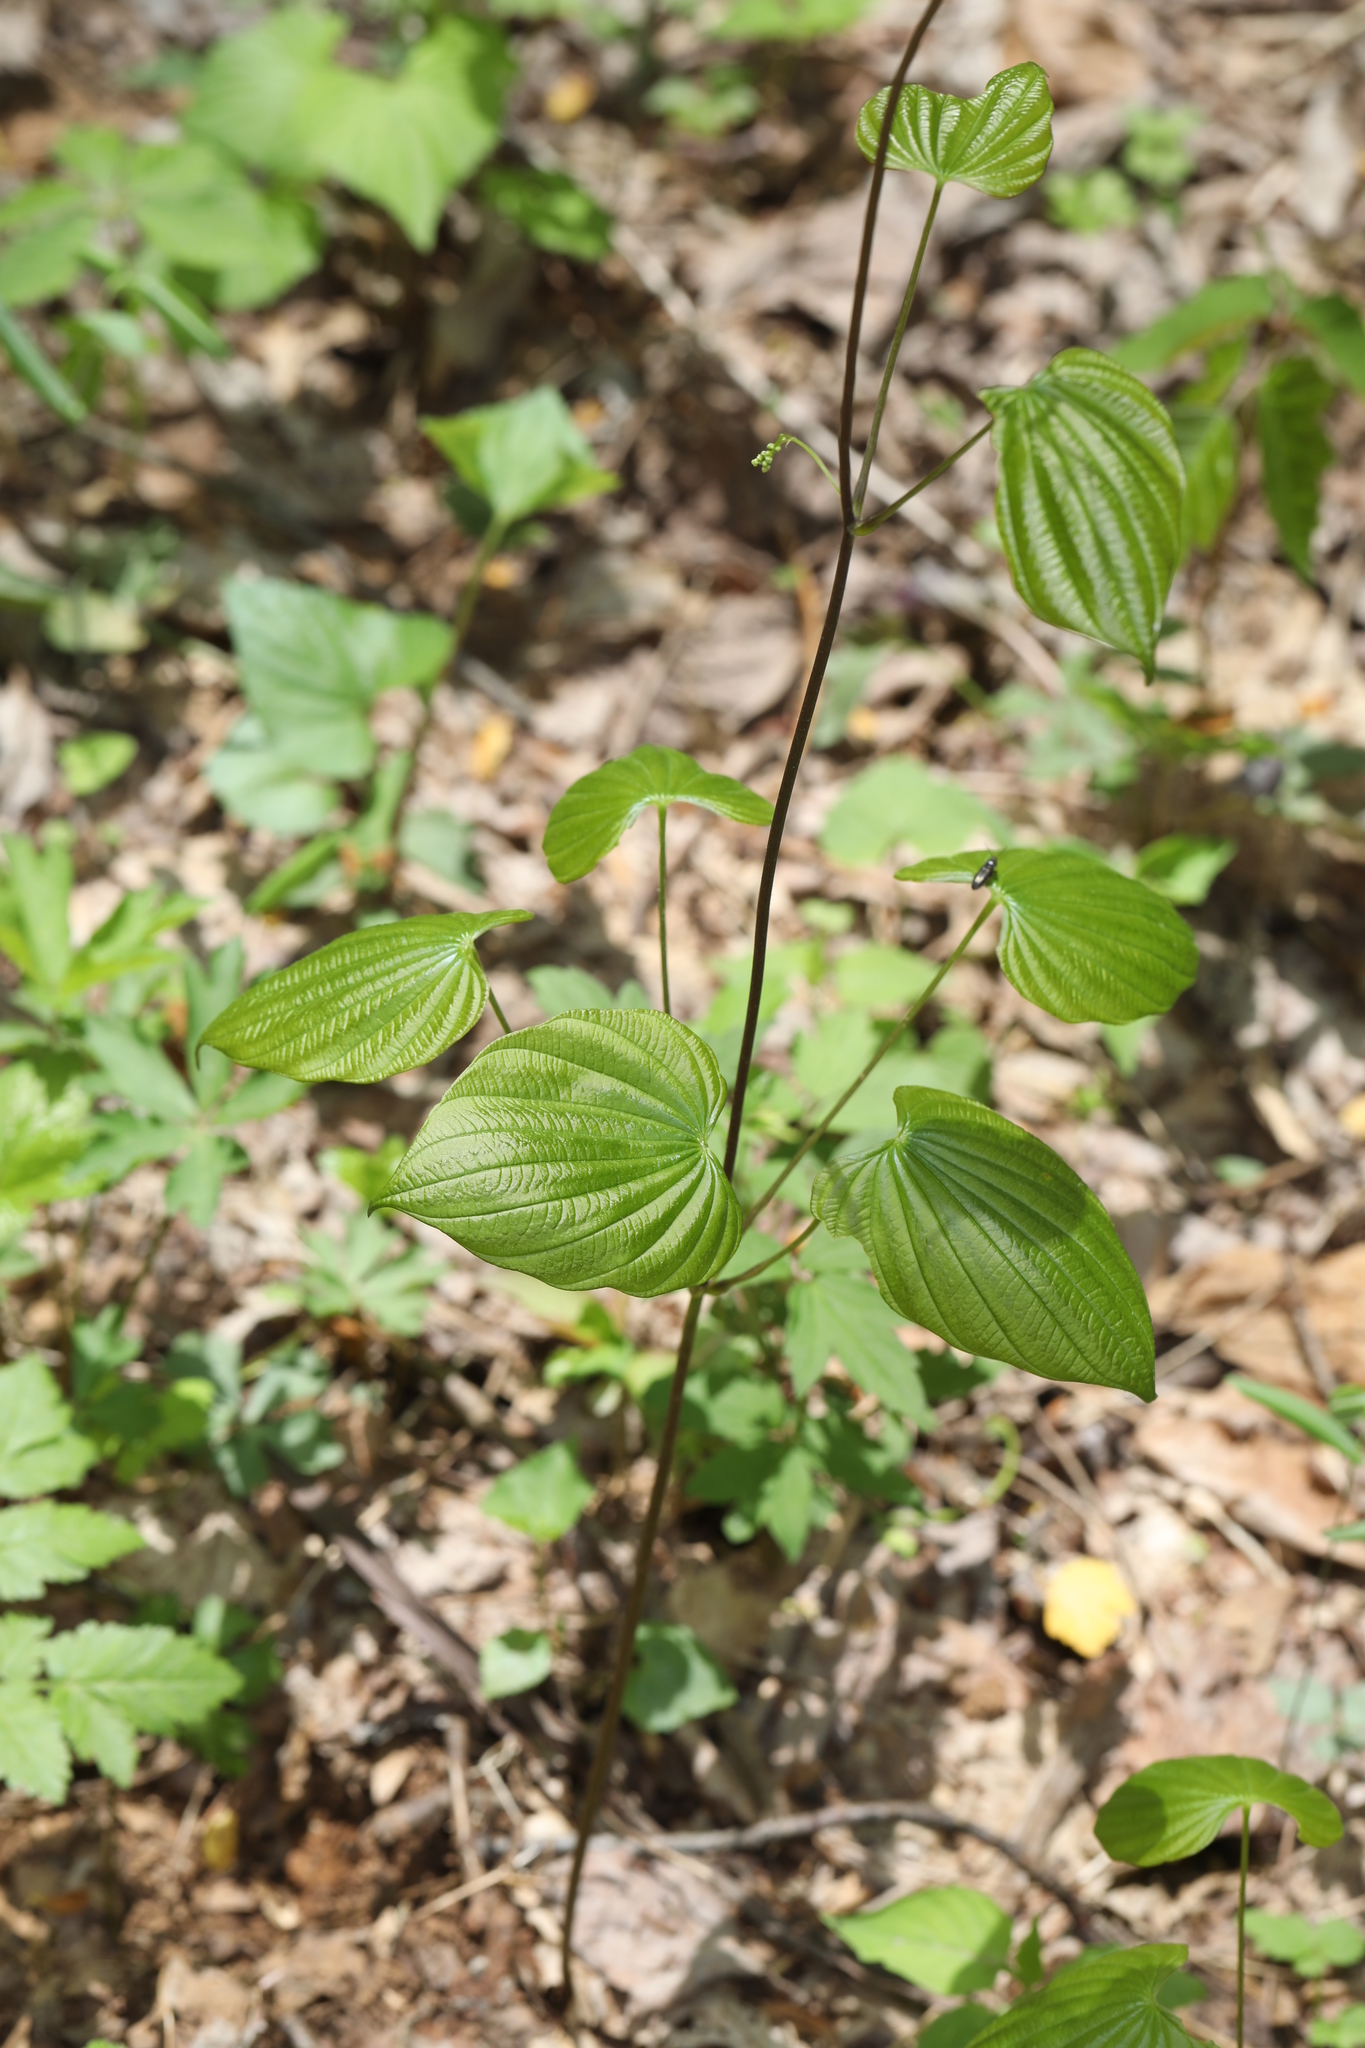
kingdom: Plantae
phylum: Tracheophyta
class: Liliopsida
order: Dioscoreales
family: Dioscoreaceae
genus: Dioscorea
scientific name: Dioscorea villosa
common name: Wild yam
